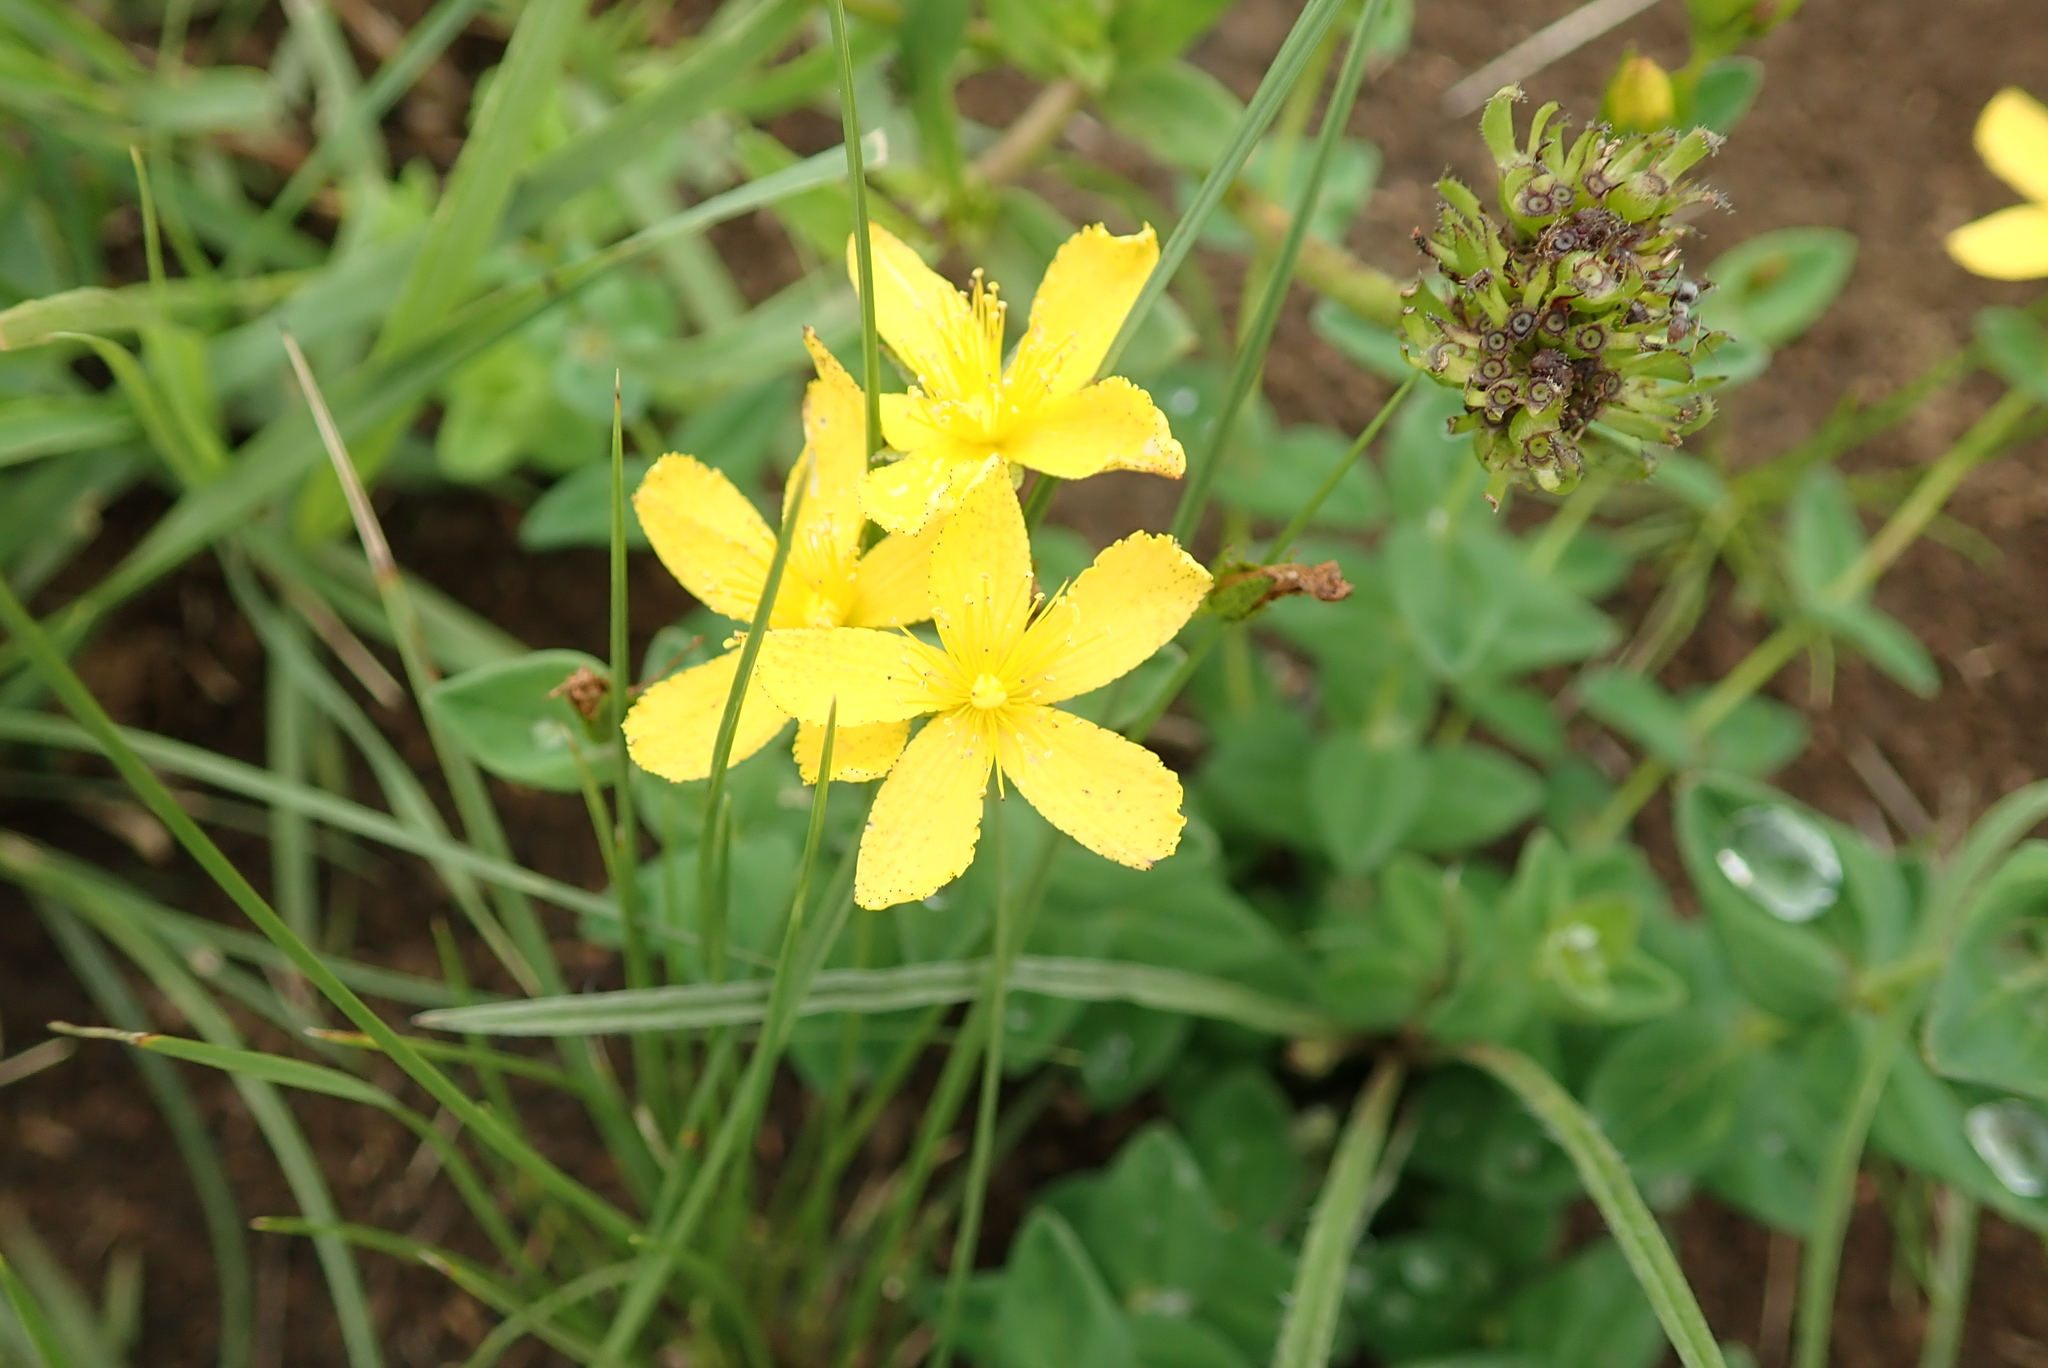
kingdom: Plantae
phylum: Tracheophyta
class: Magnoliopsida
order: Malpighiales
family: Hypericaceae
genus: Hypericum
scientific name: Hypericum aethiopicum
